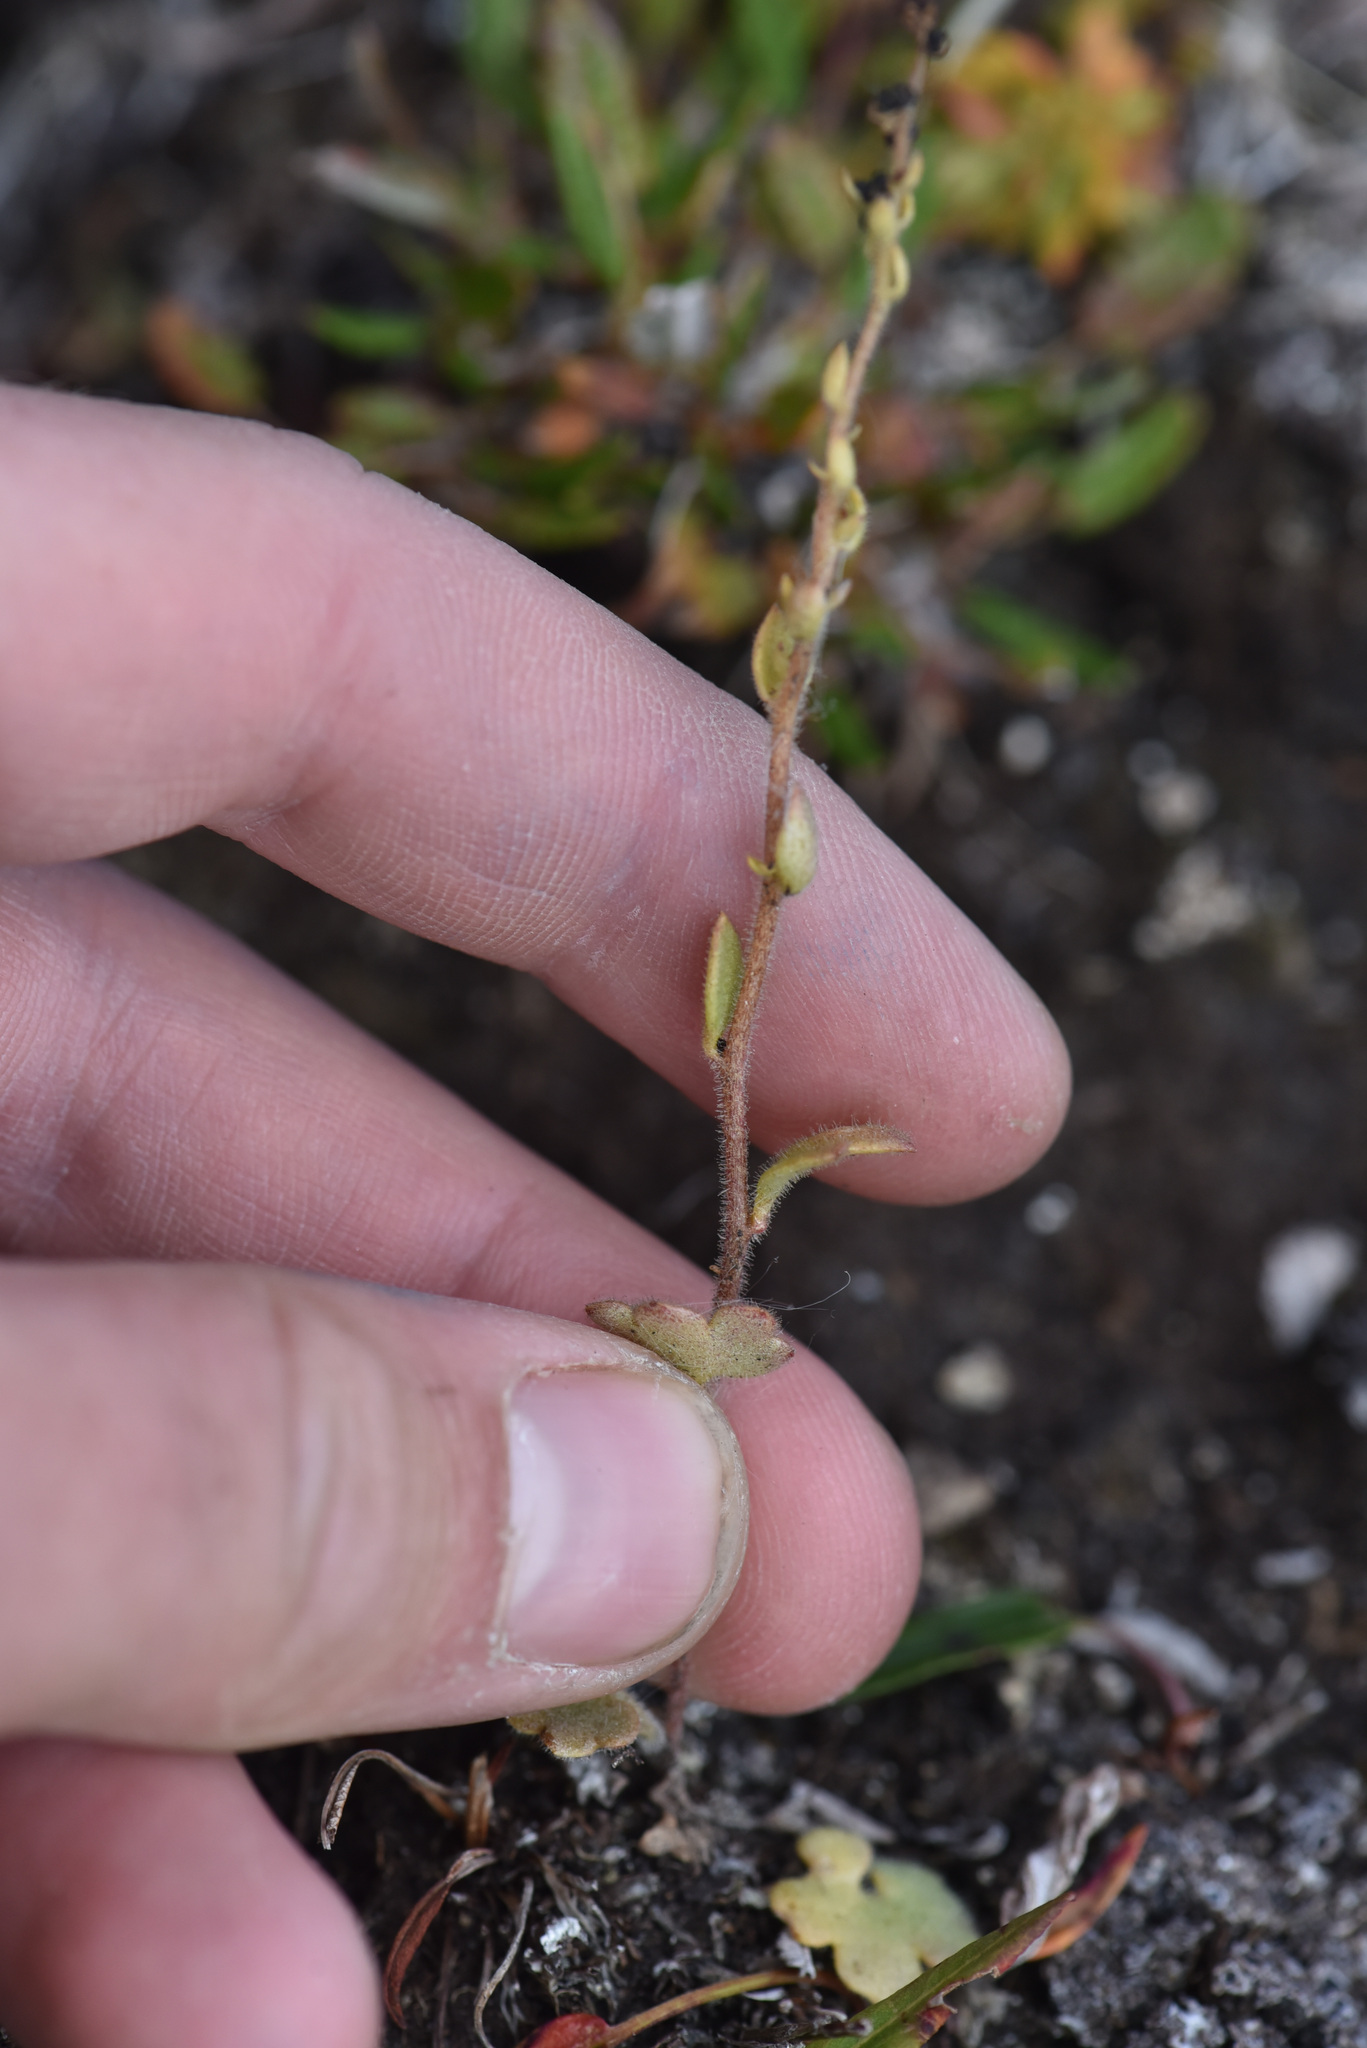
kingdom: Plantae
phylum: Tracheophyta
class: Magnoliopsida
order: Saxifragales
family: Saxifragaceae
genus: Saxifraga
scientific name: Saxifraga cernua
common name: Drooping saxifrage
